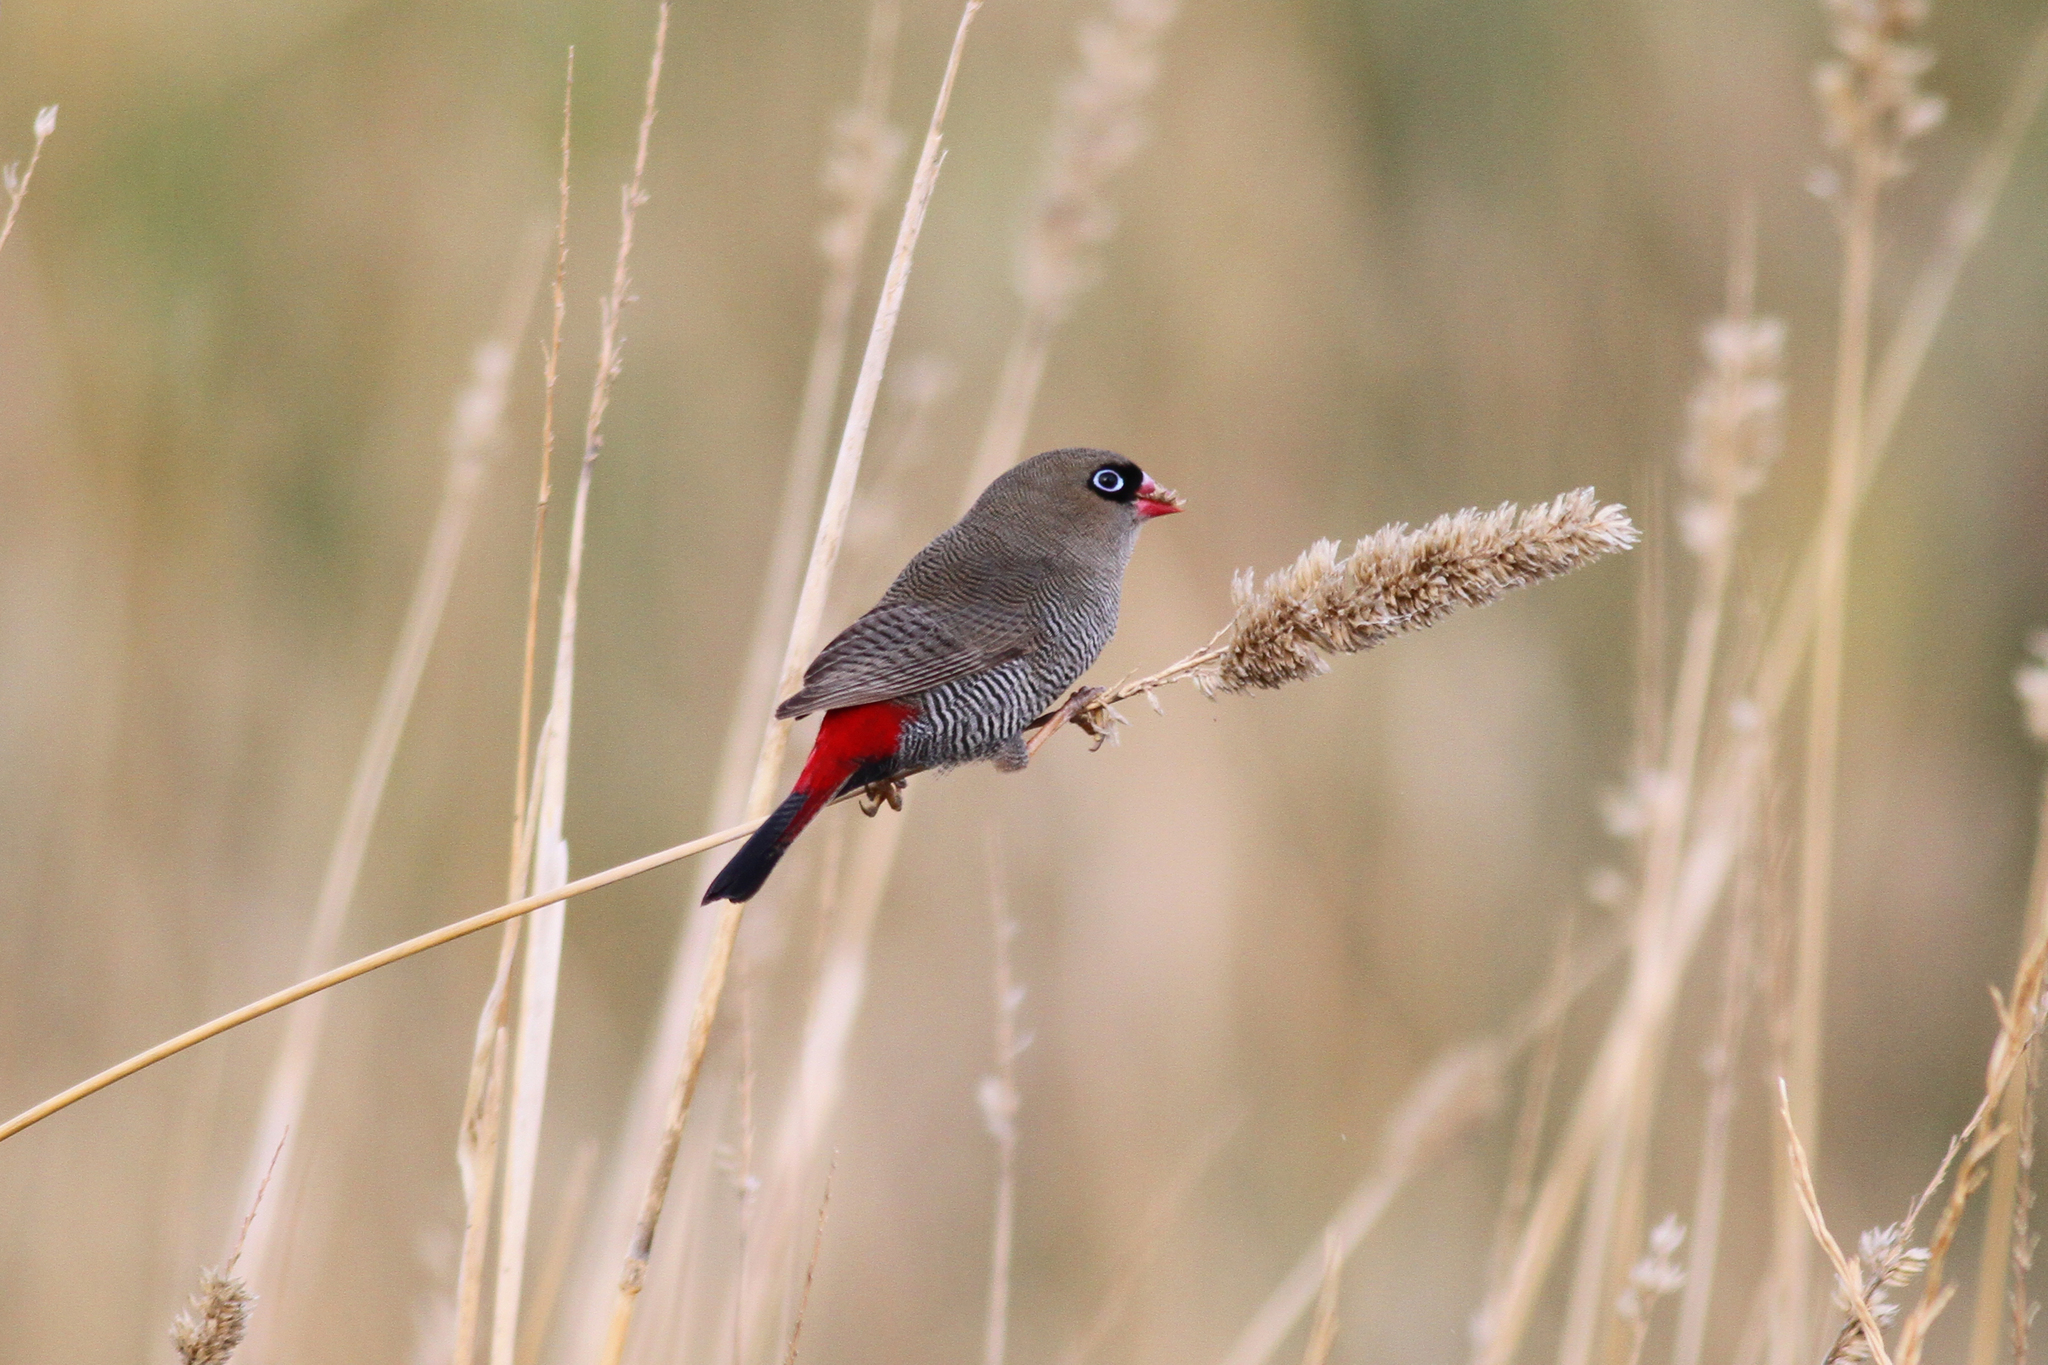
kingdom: Animalia
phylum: Chordata
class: Aves
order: Passeriformes
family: Estrildidae
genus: Stagonopleura
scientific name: Stagonopleura bella
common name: Beautiful firetail
